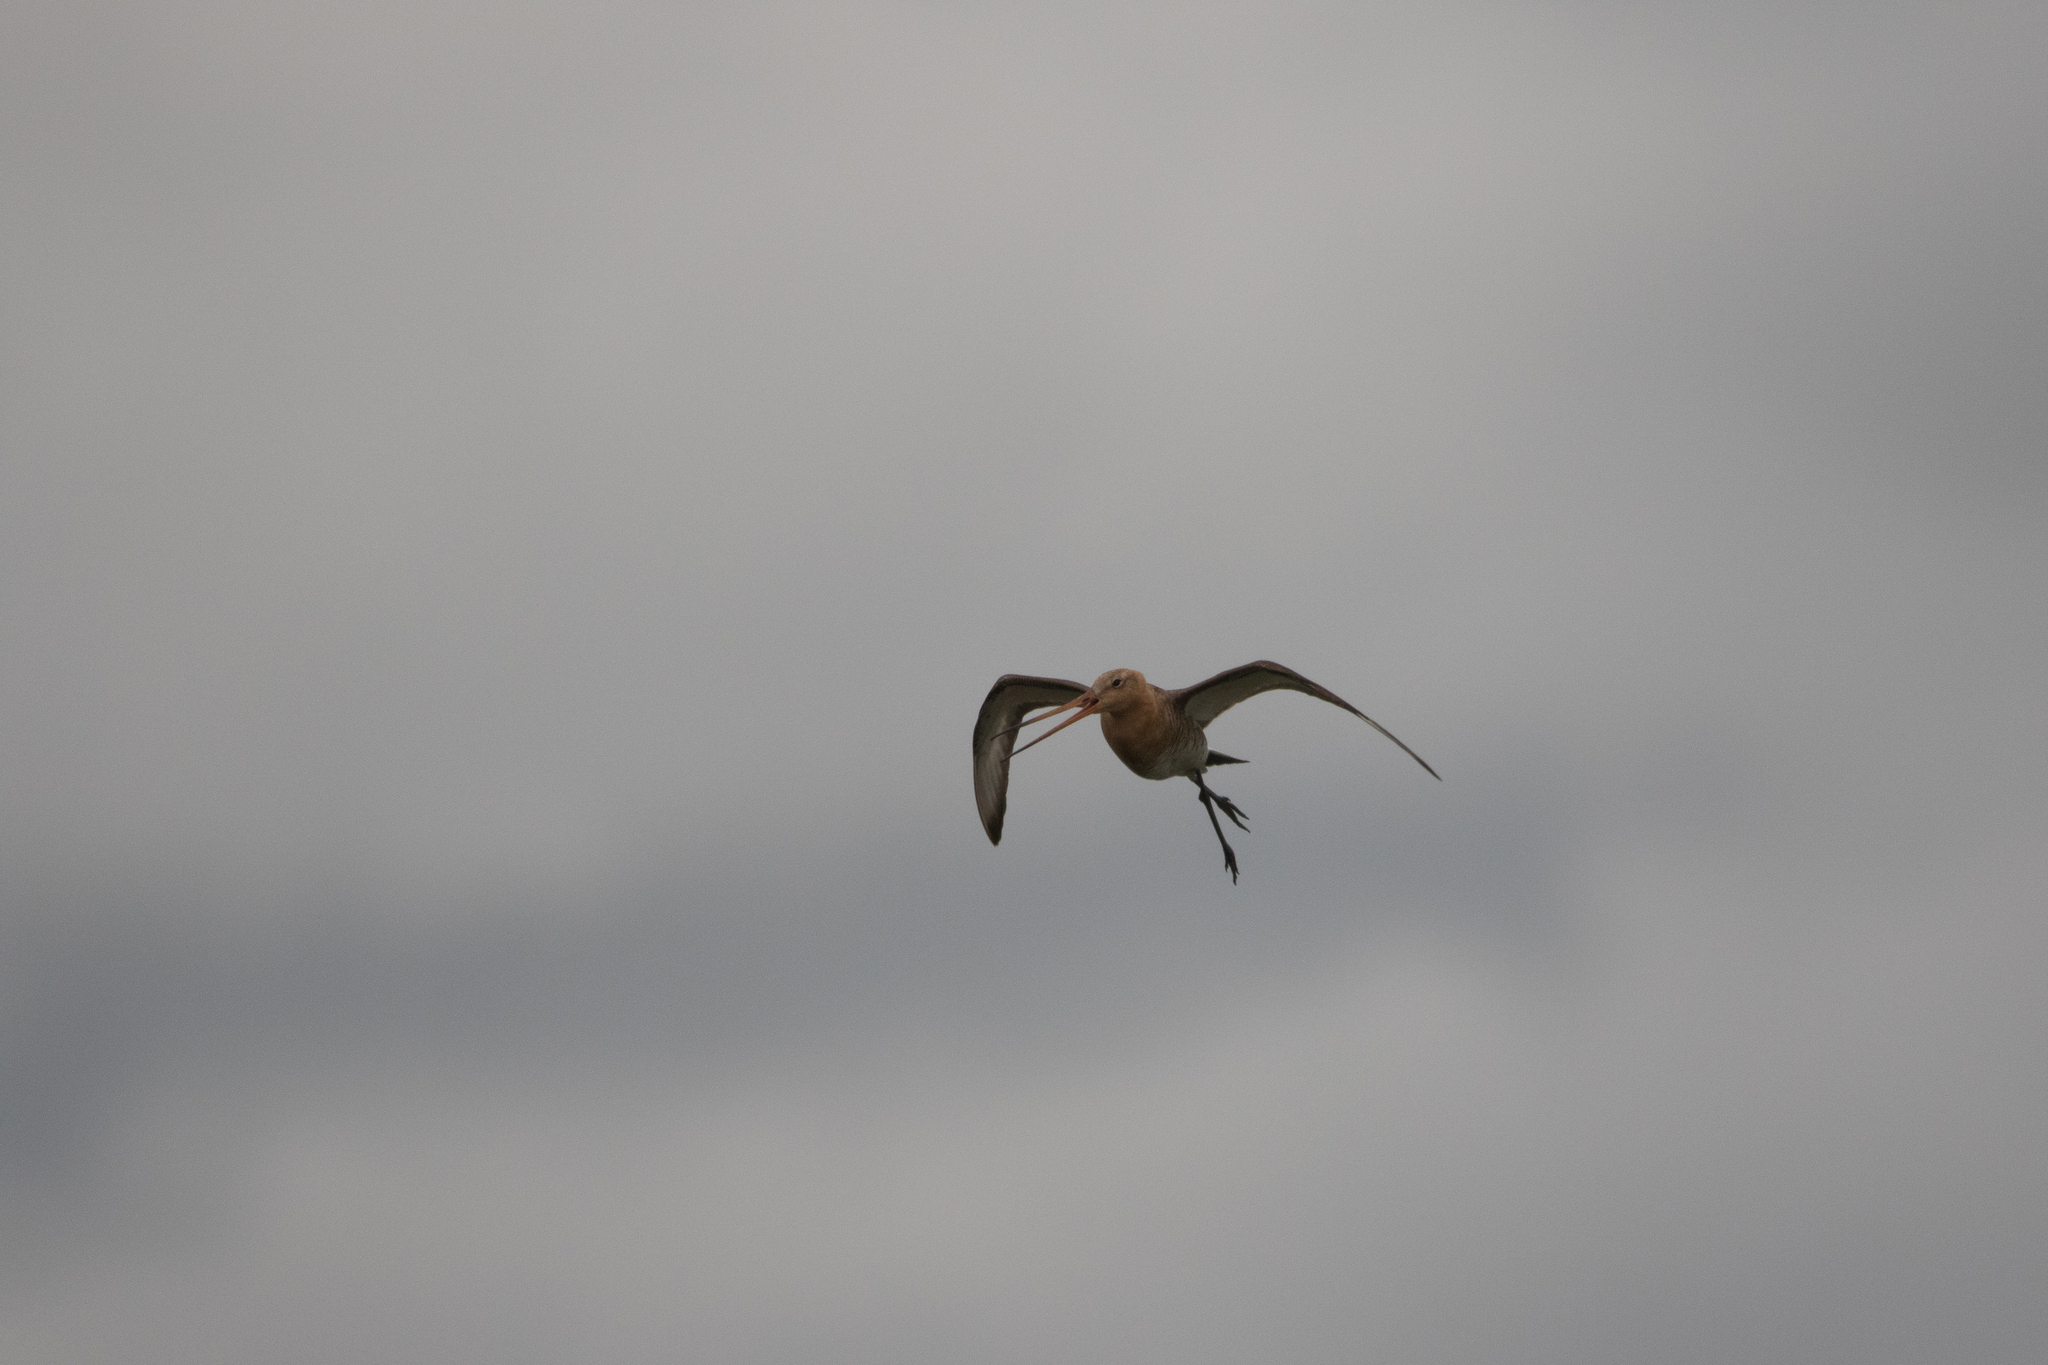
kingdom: Animalia
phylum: Chordata
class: Aves
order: Charadriiformes
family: Scolopacidae
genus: Limosa
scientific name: Limosa limosa
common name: Black-tailed godwit
